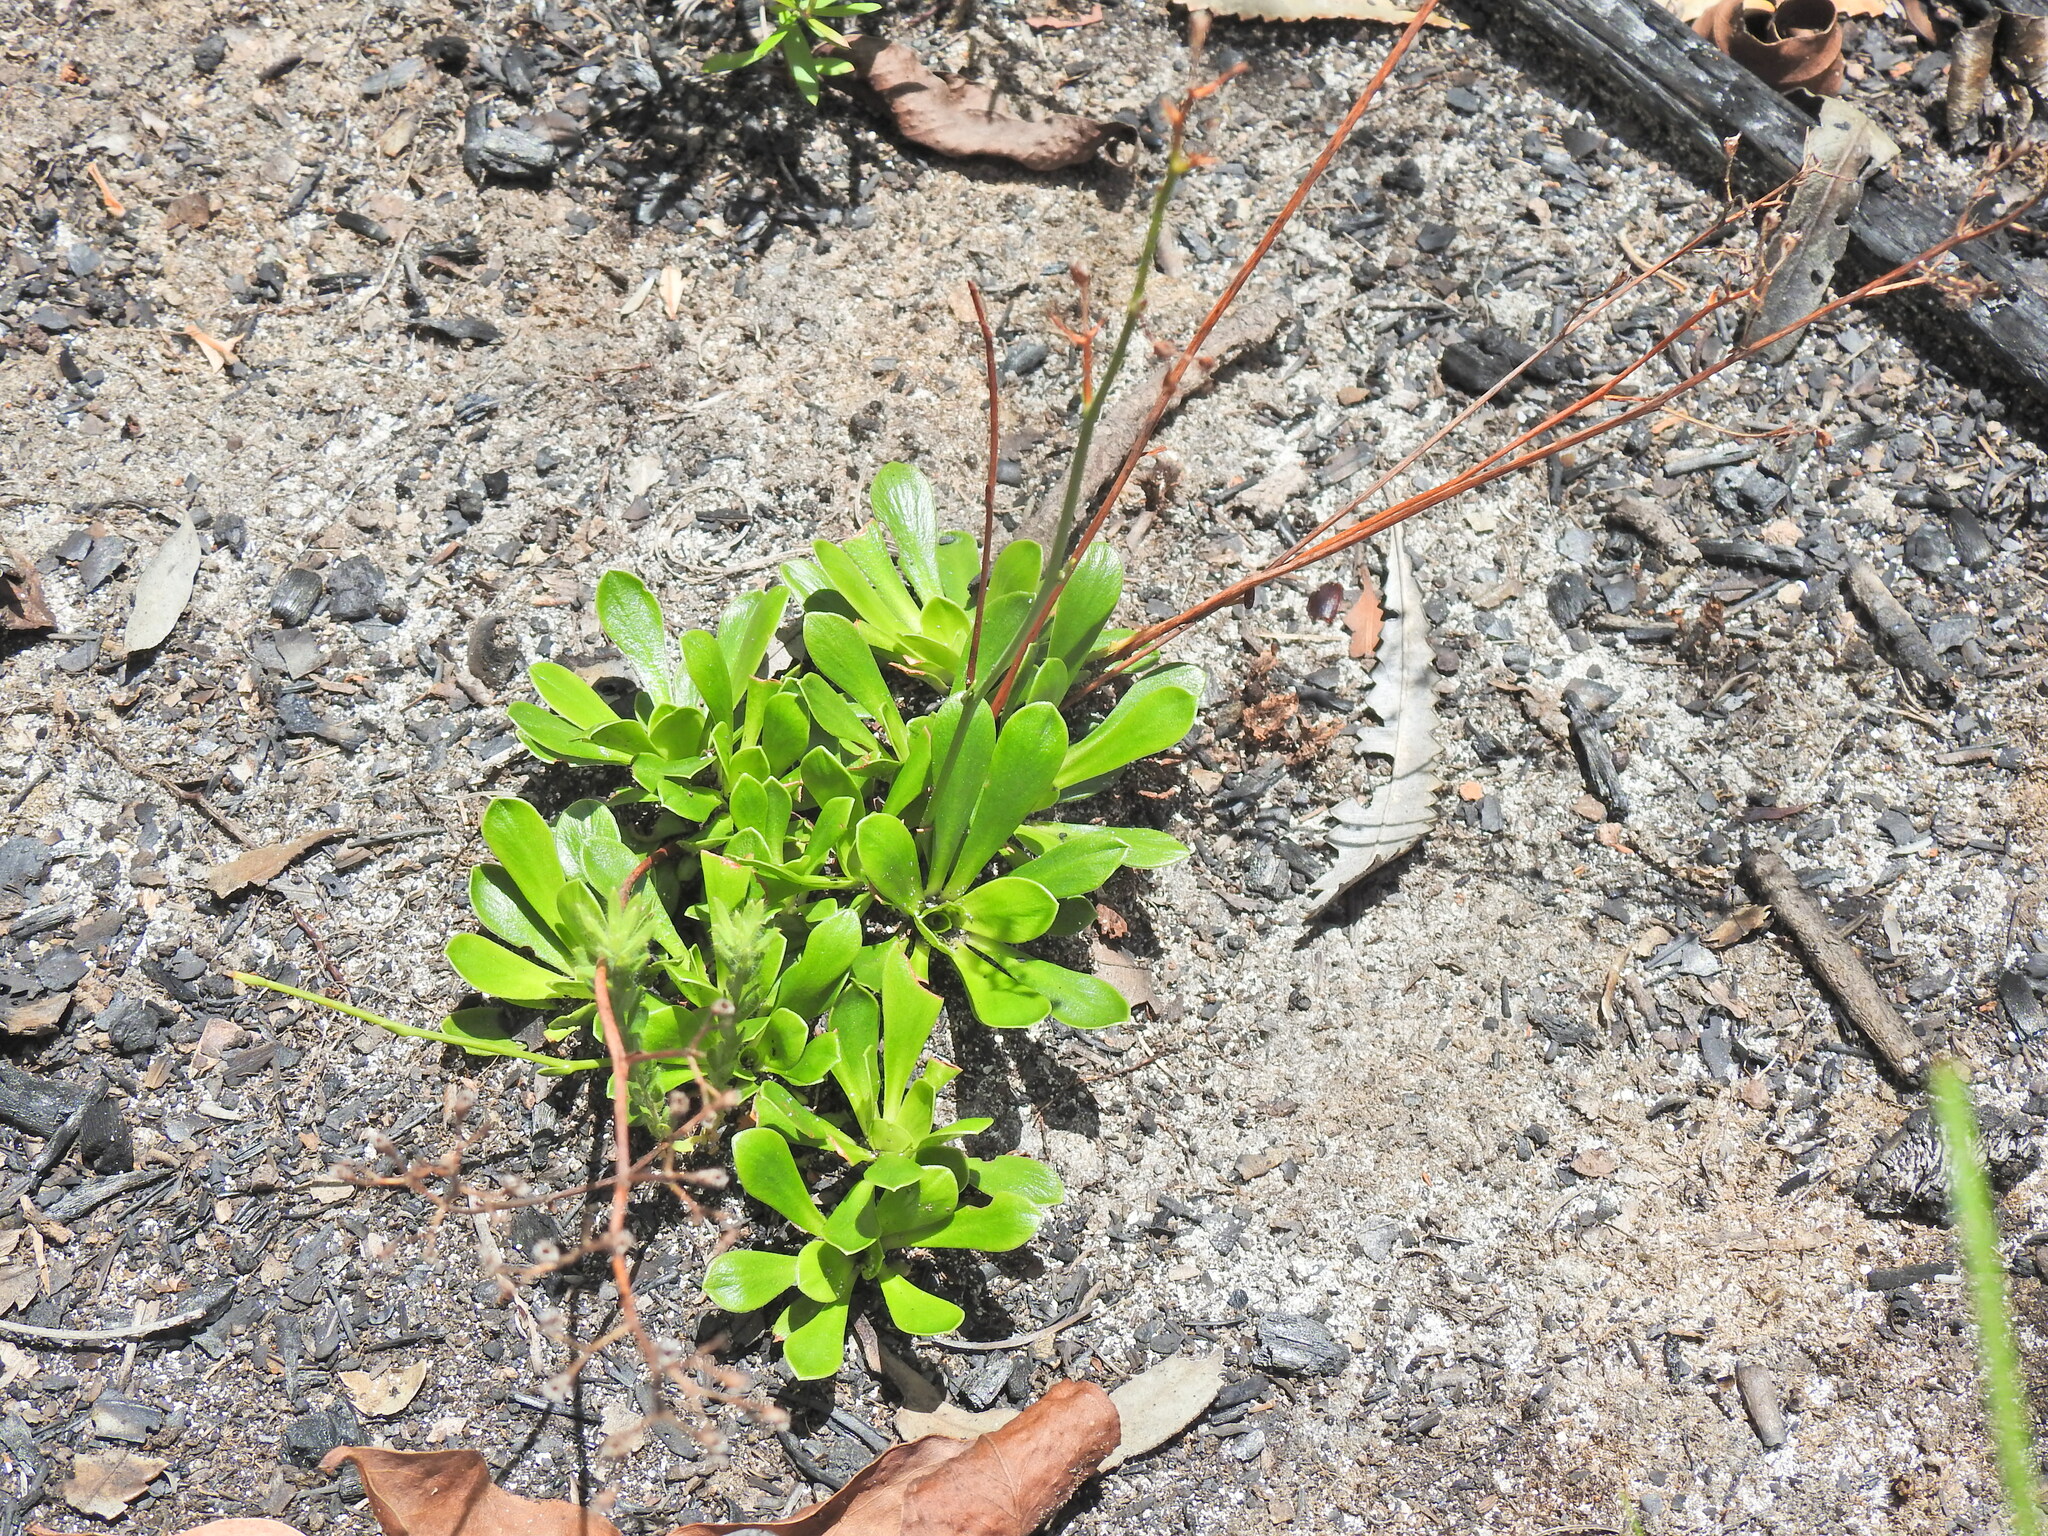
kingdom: Plantae
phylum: Tracheophyta
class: Magnoliopsida
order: Asterales
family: Stylidiaceae
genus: Stylidium
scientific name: Stylidium ornatum
